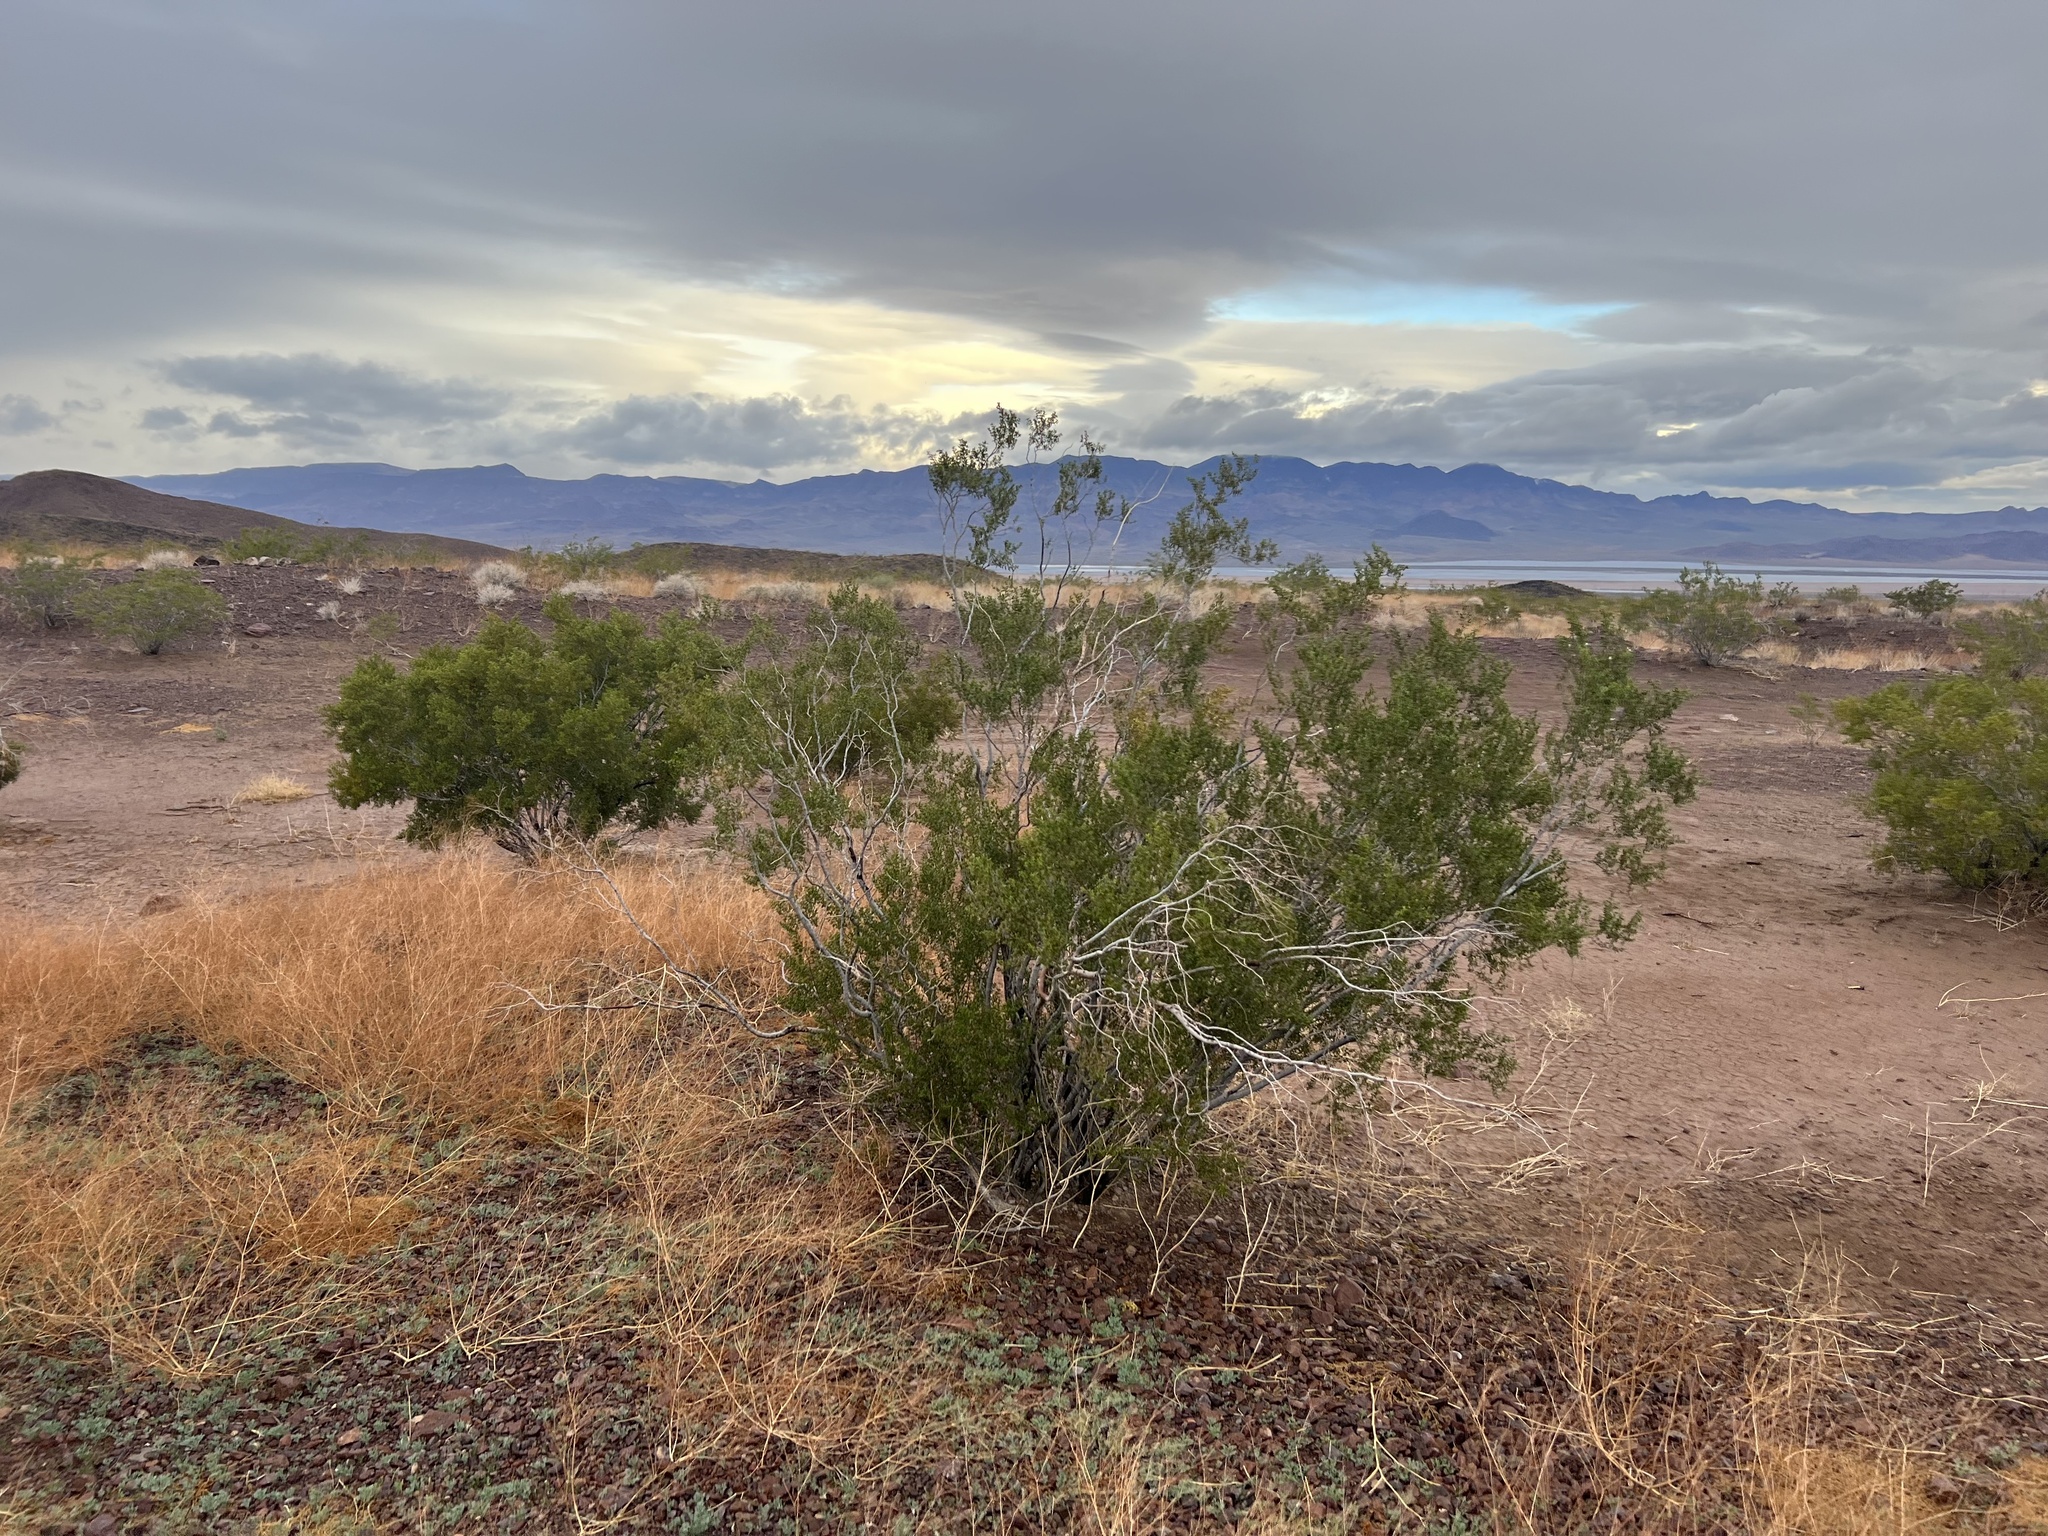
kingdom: Plantae
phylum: Tracheophyta
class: Magnoliopsida
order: Zygophyllales
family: Zygophyllaceae
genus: Larrea
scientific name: Larrea tridentata
